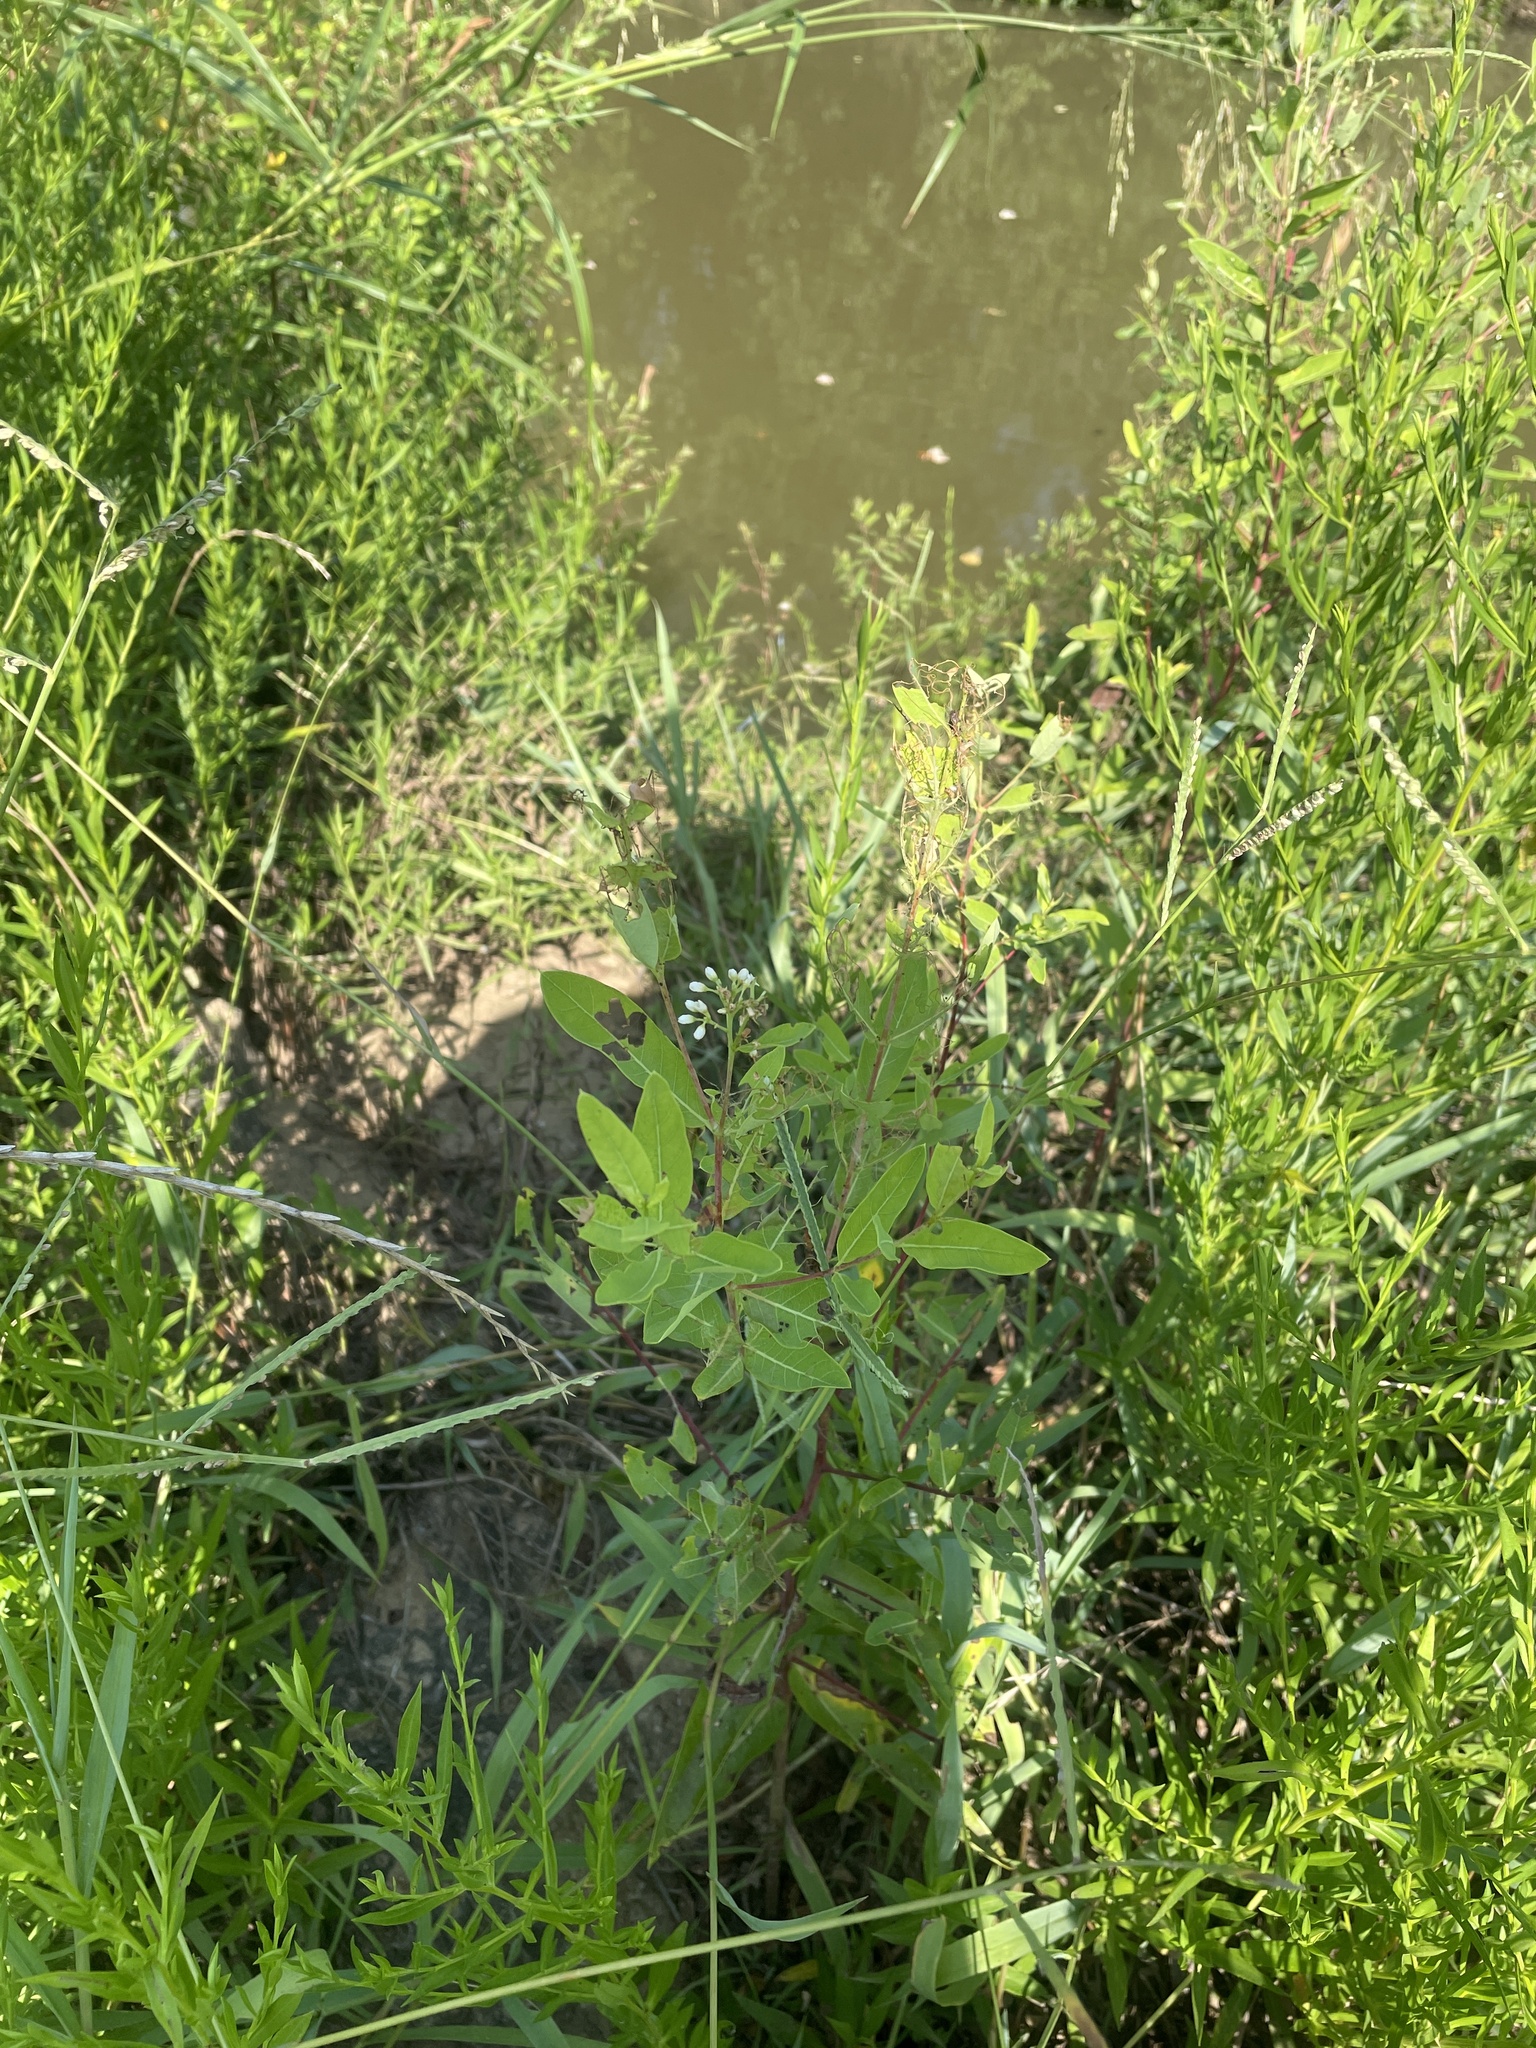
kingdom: Plantae
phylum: Tracheophyta
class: Magnoliopsida
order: Gentianales
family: Apocynaceae
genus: Apocynum
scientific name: Apocynum cannabinum
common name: Hemp dogbane
